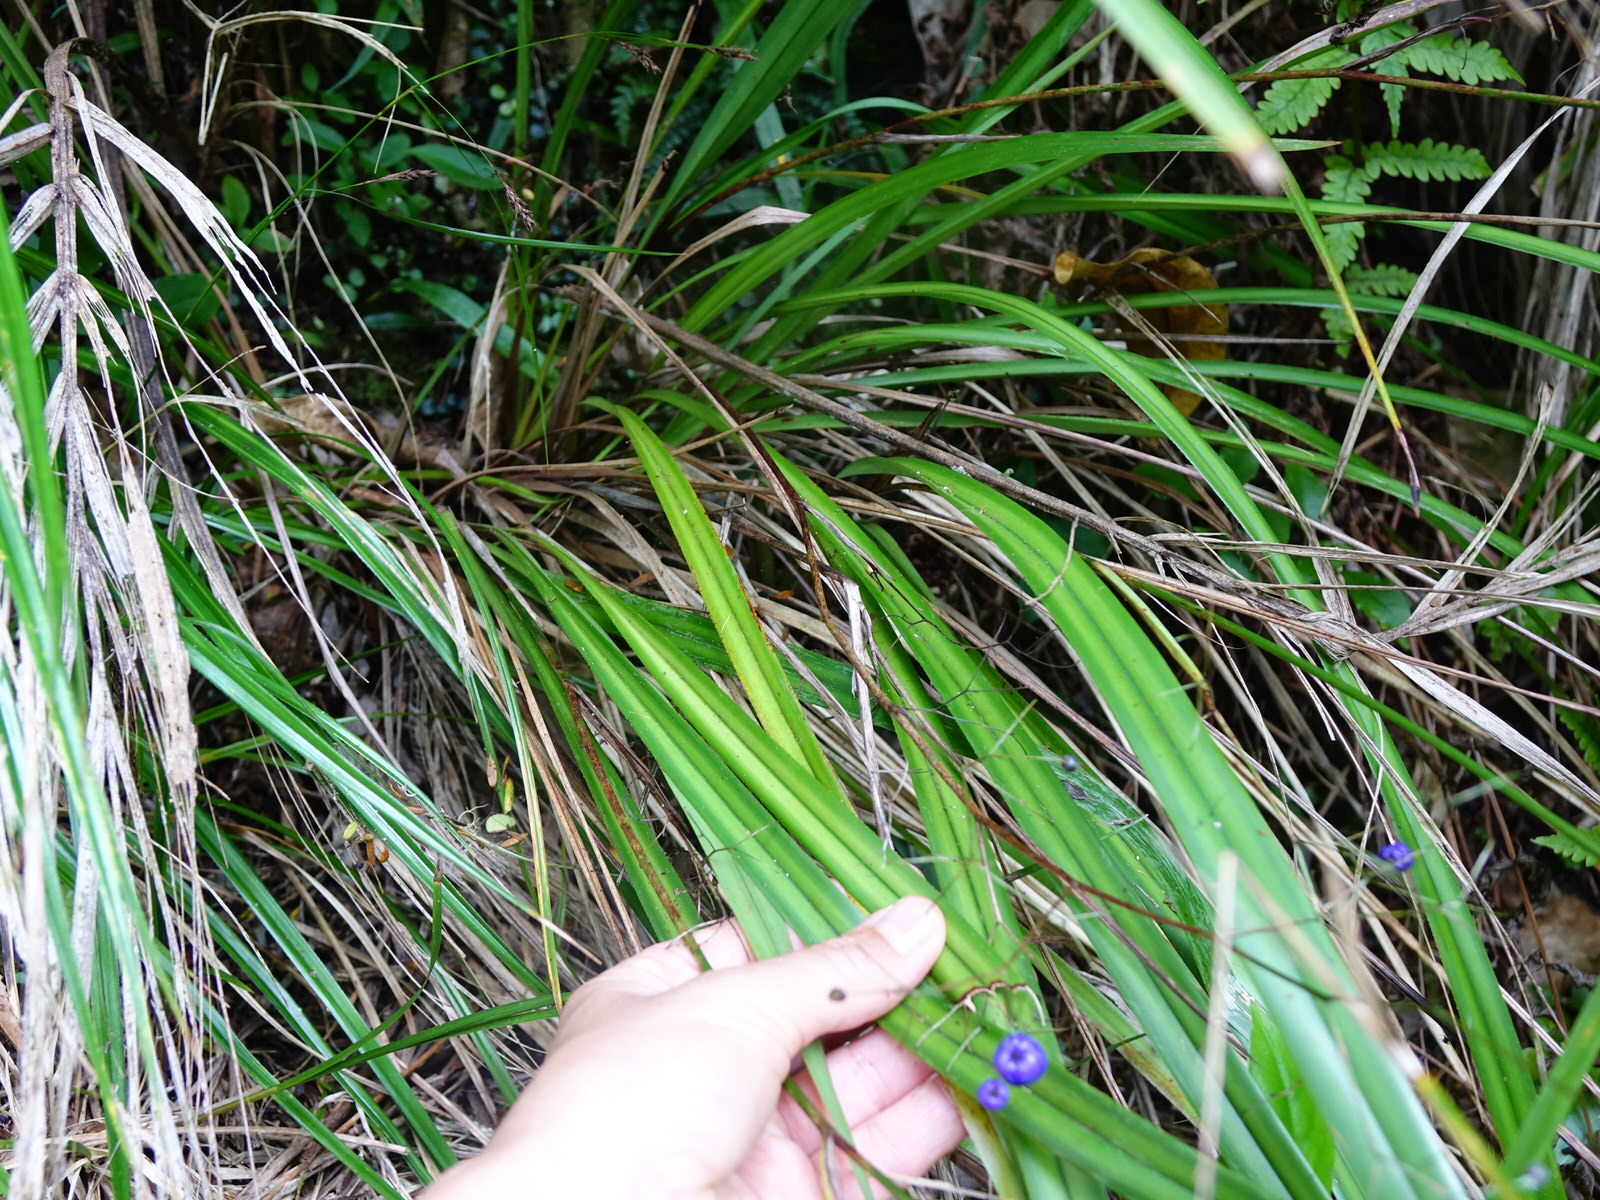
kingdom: Plantae
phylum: Tracheophyta
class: Liliopsida
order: Asparagales
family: Asphodelaceae
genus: Dianella
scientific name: Dianella nigra
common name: New zealand-blueberry
